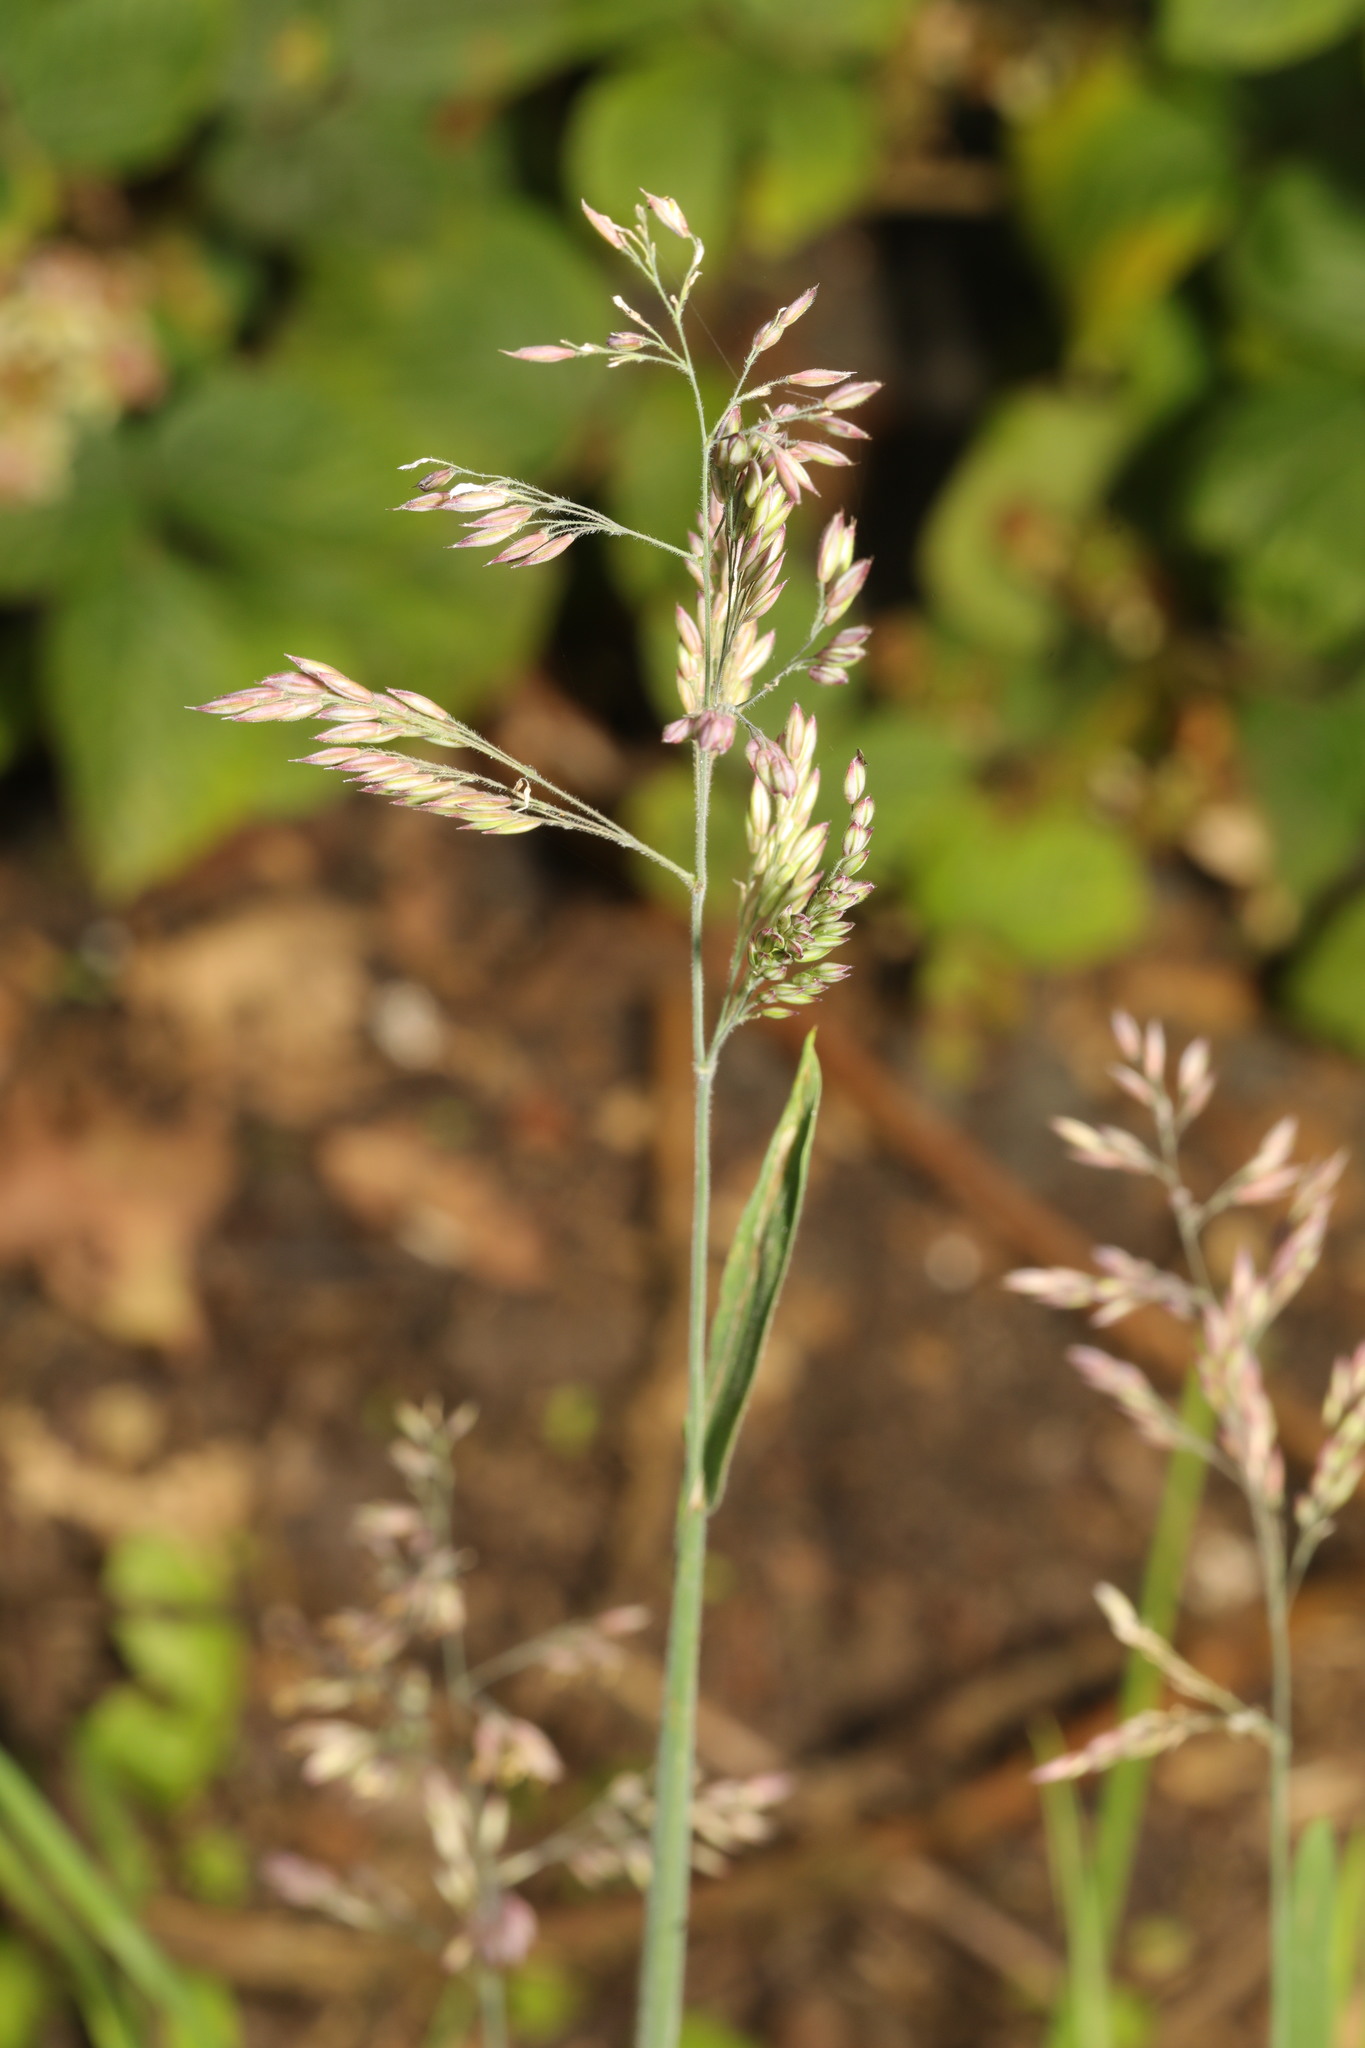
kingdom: Plantae
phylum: Tracheophyta
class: Liliopsida
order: Poales
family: Poaceae
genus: Holcus
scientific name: Holcus lanatus
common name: Yorkshire-fog
